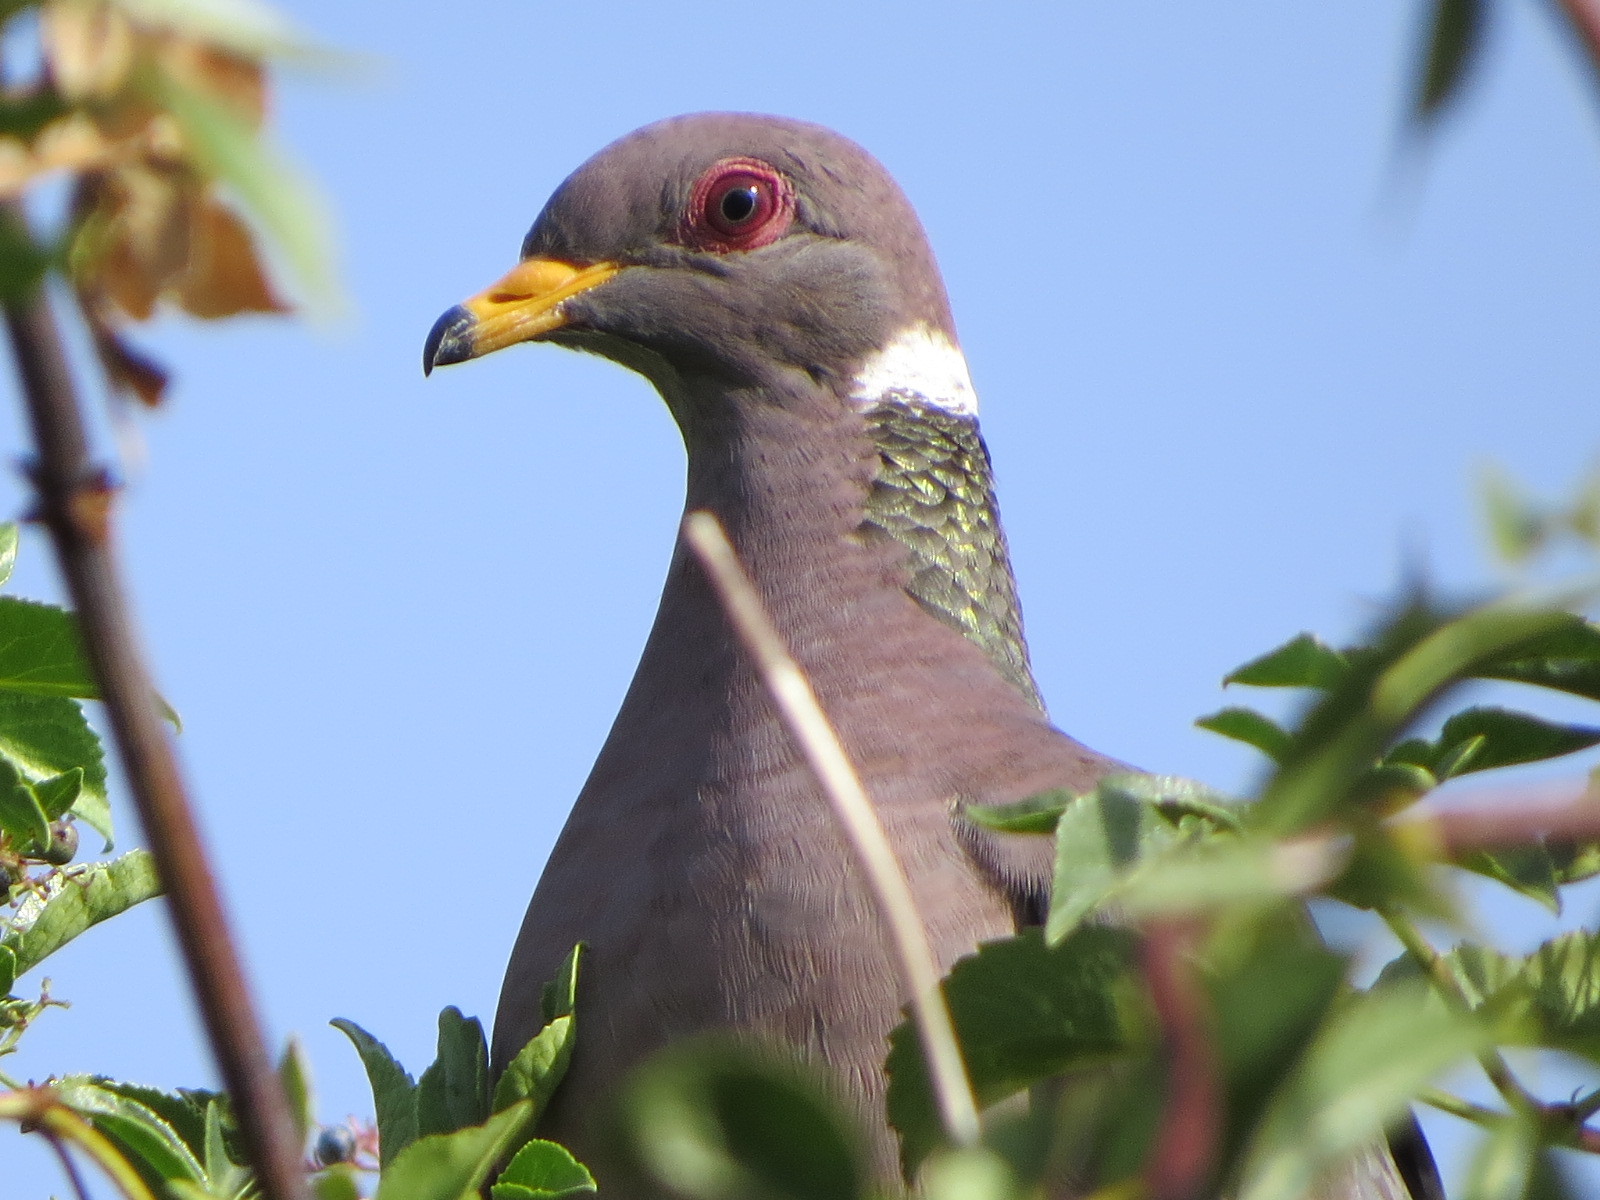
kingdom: Animalia
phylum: Chordata
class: Aves
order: Columbiformes
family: Columbidae
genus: Patagioenas
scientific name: Patagioenas fasciata
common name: Band-tailed pigeon
